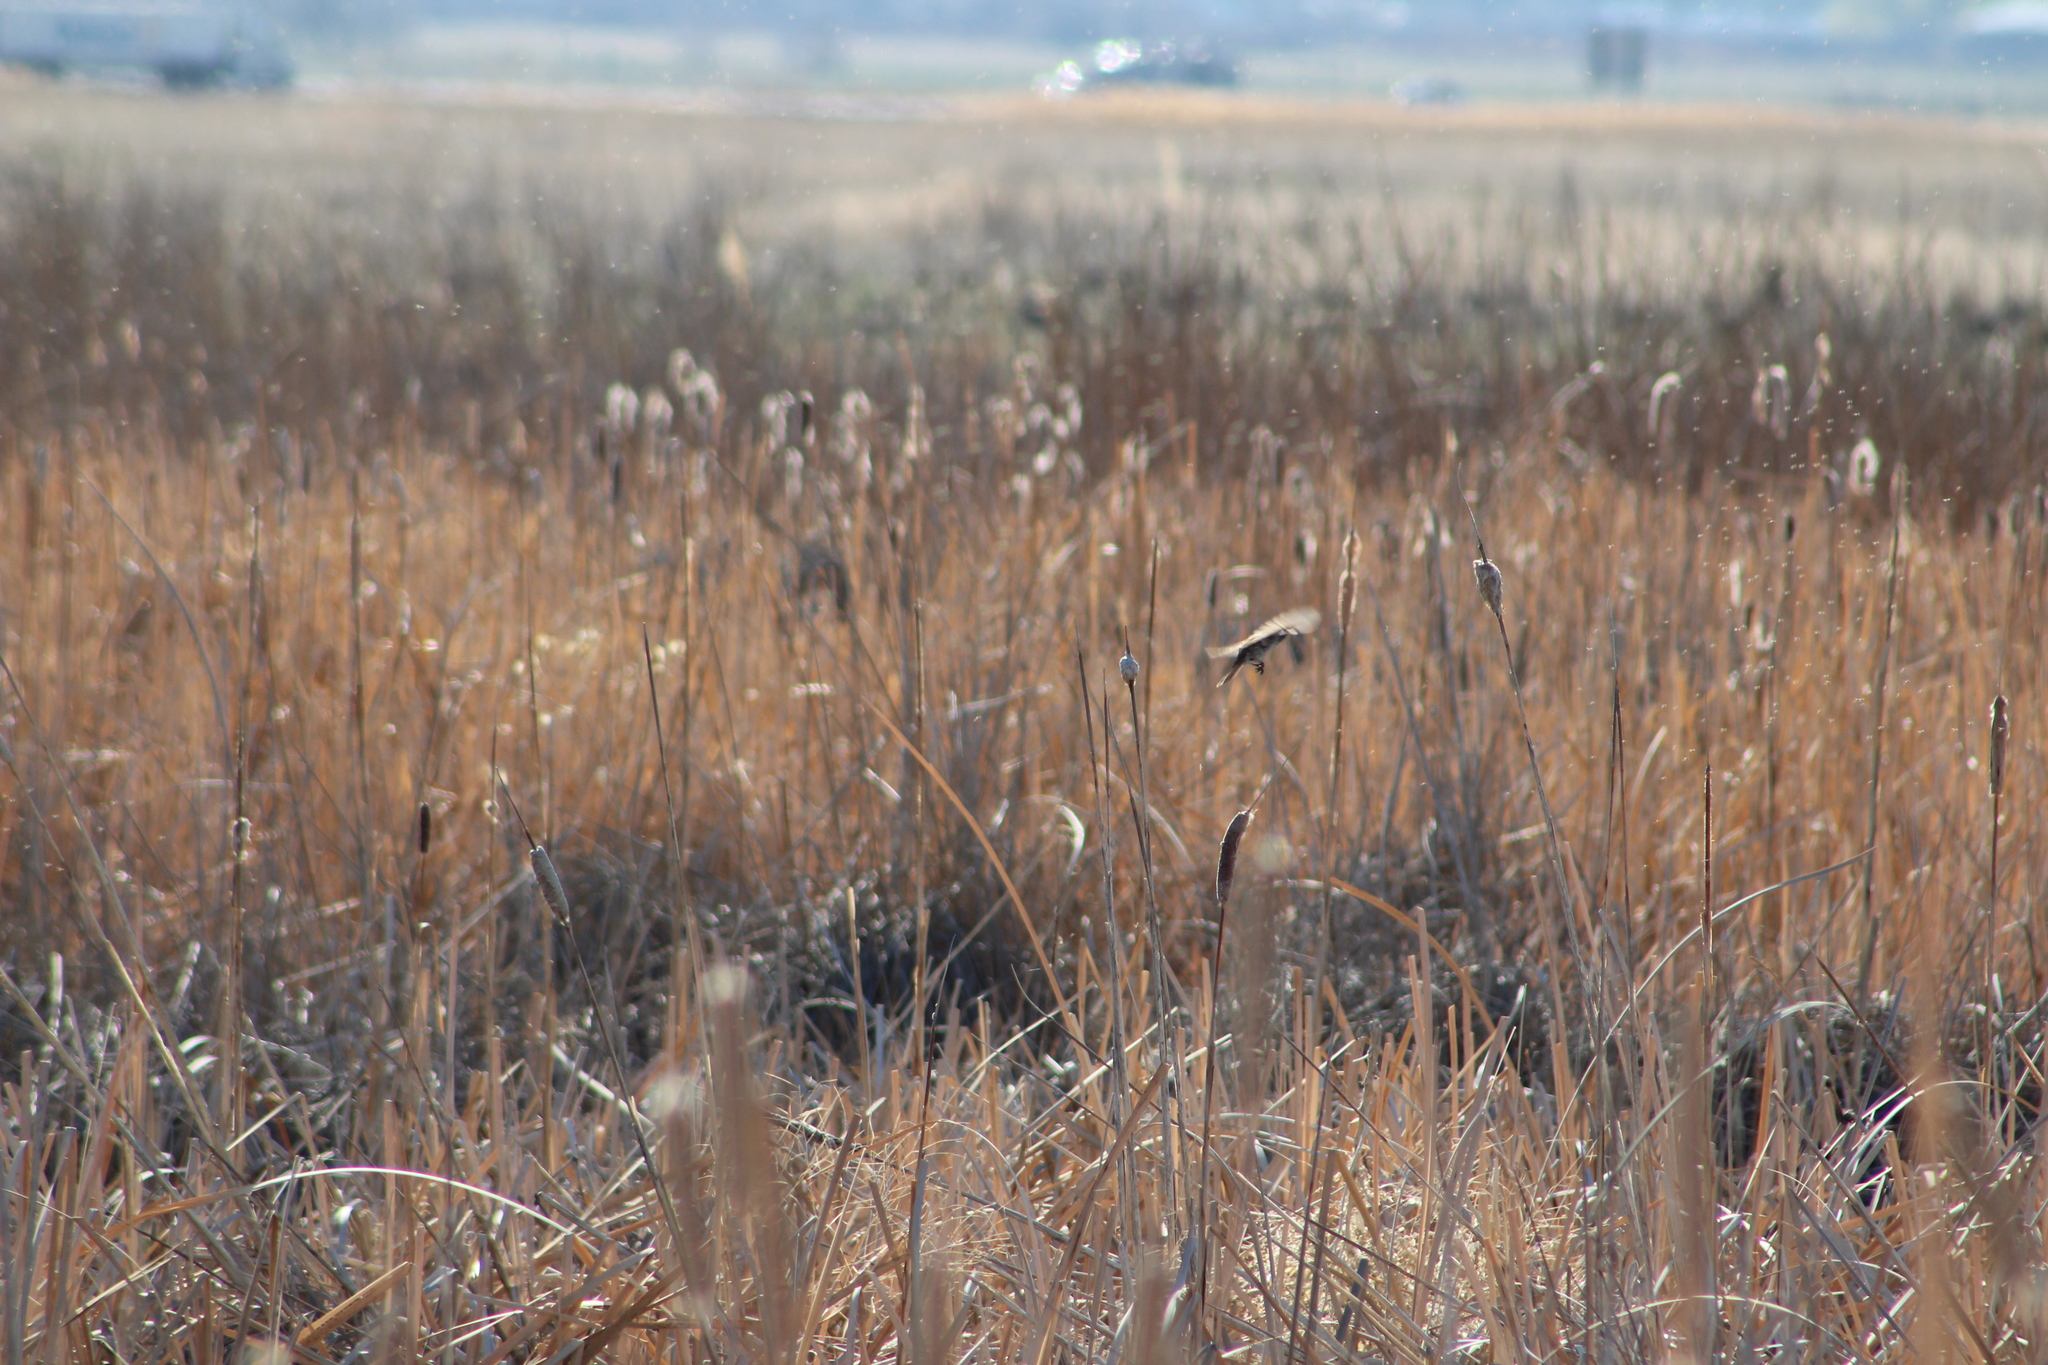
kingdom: Animalia
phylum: Chordata
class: Aves
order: Passeriformes
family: Passerellidae
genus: Melospiza
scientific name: Melospiza melodia
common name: Song sparrow
